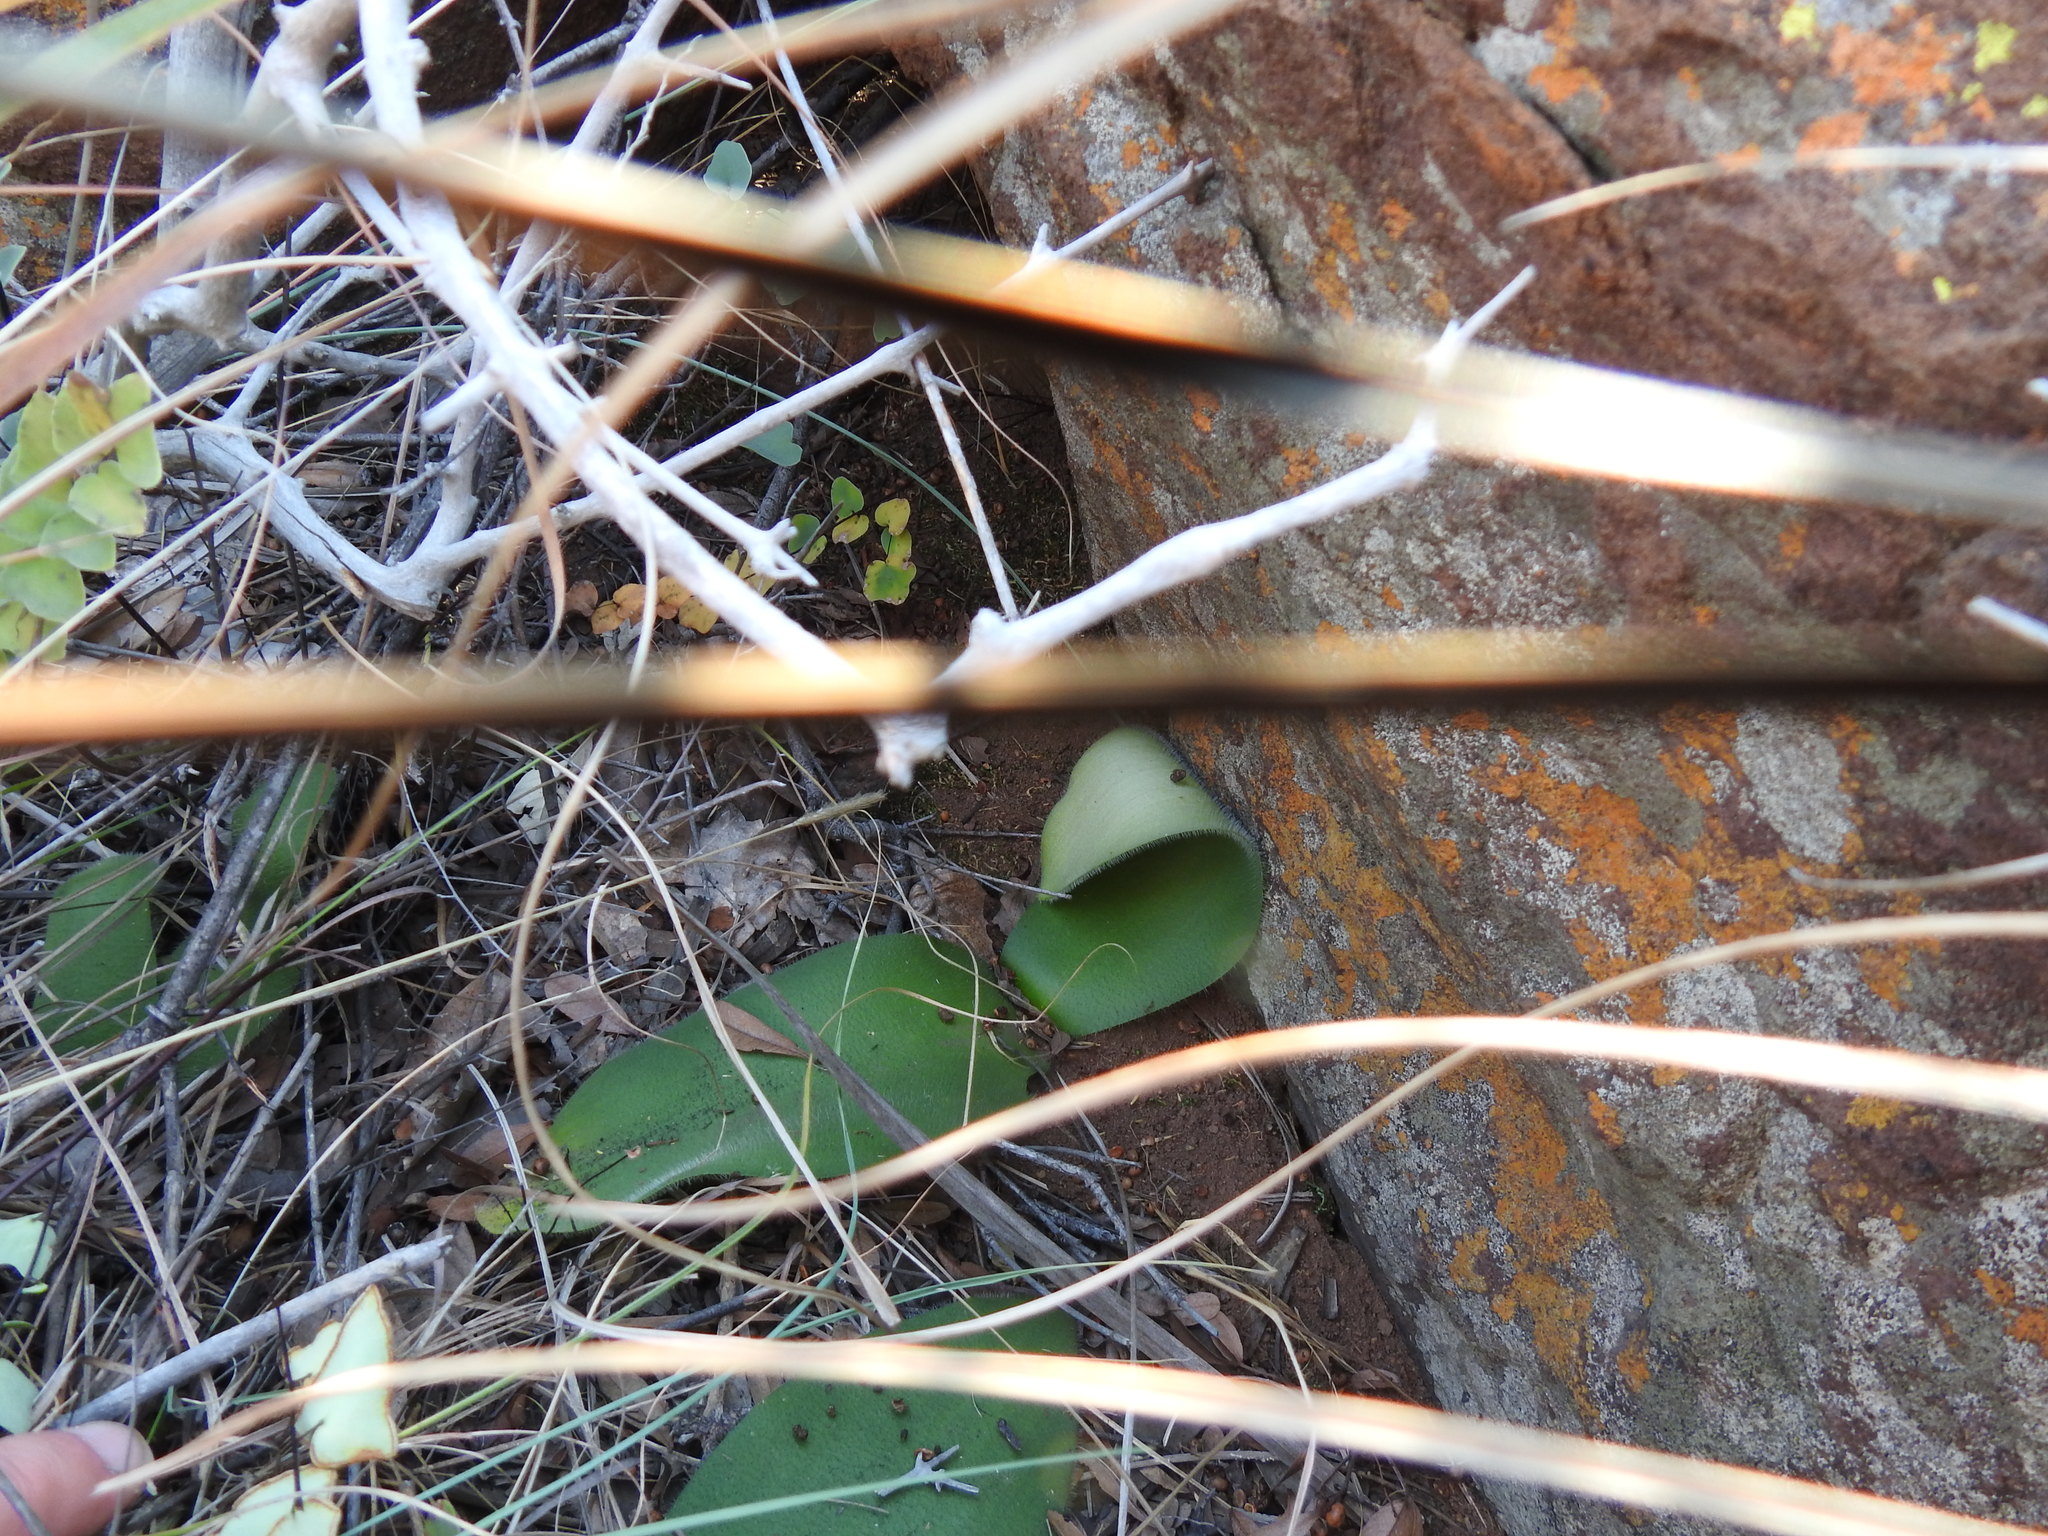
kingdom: Plantae
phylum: Tracheophyta
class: Liliopsida
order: Asparagales
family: Amaryllidaceae
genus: Haemanthus
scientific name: Haemanthus humilis
